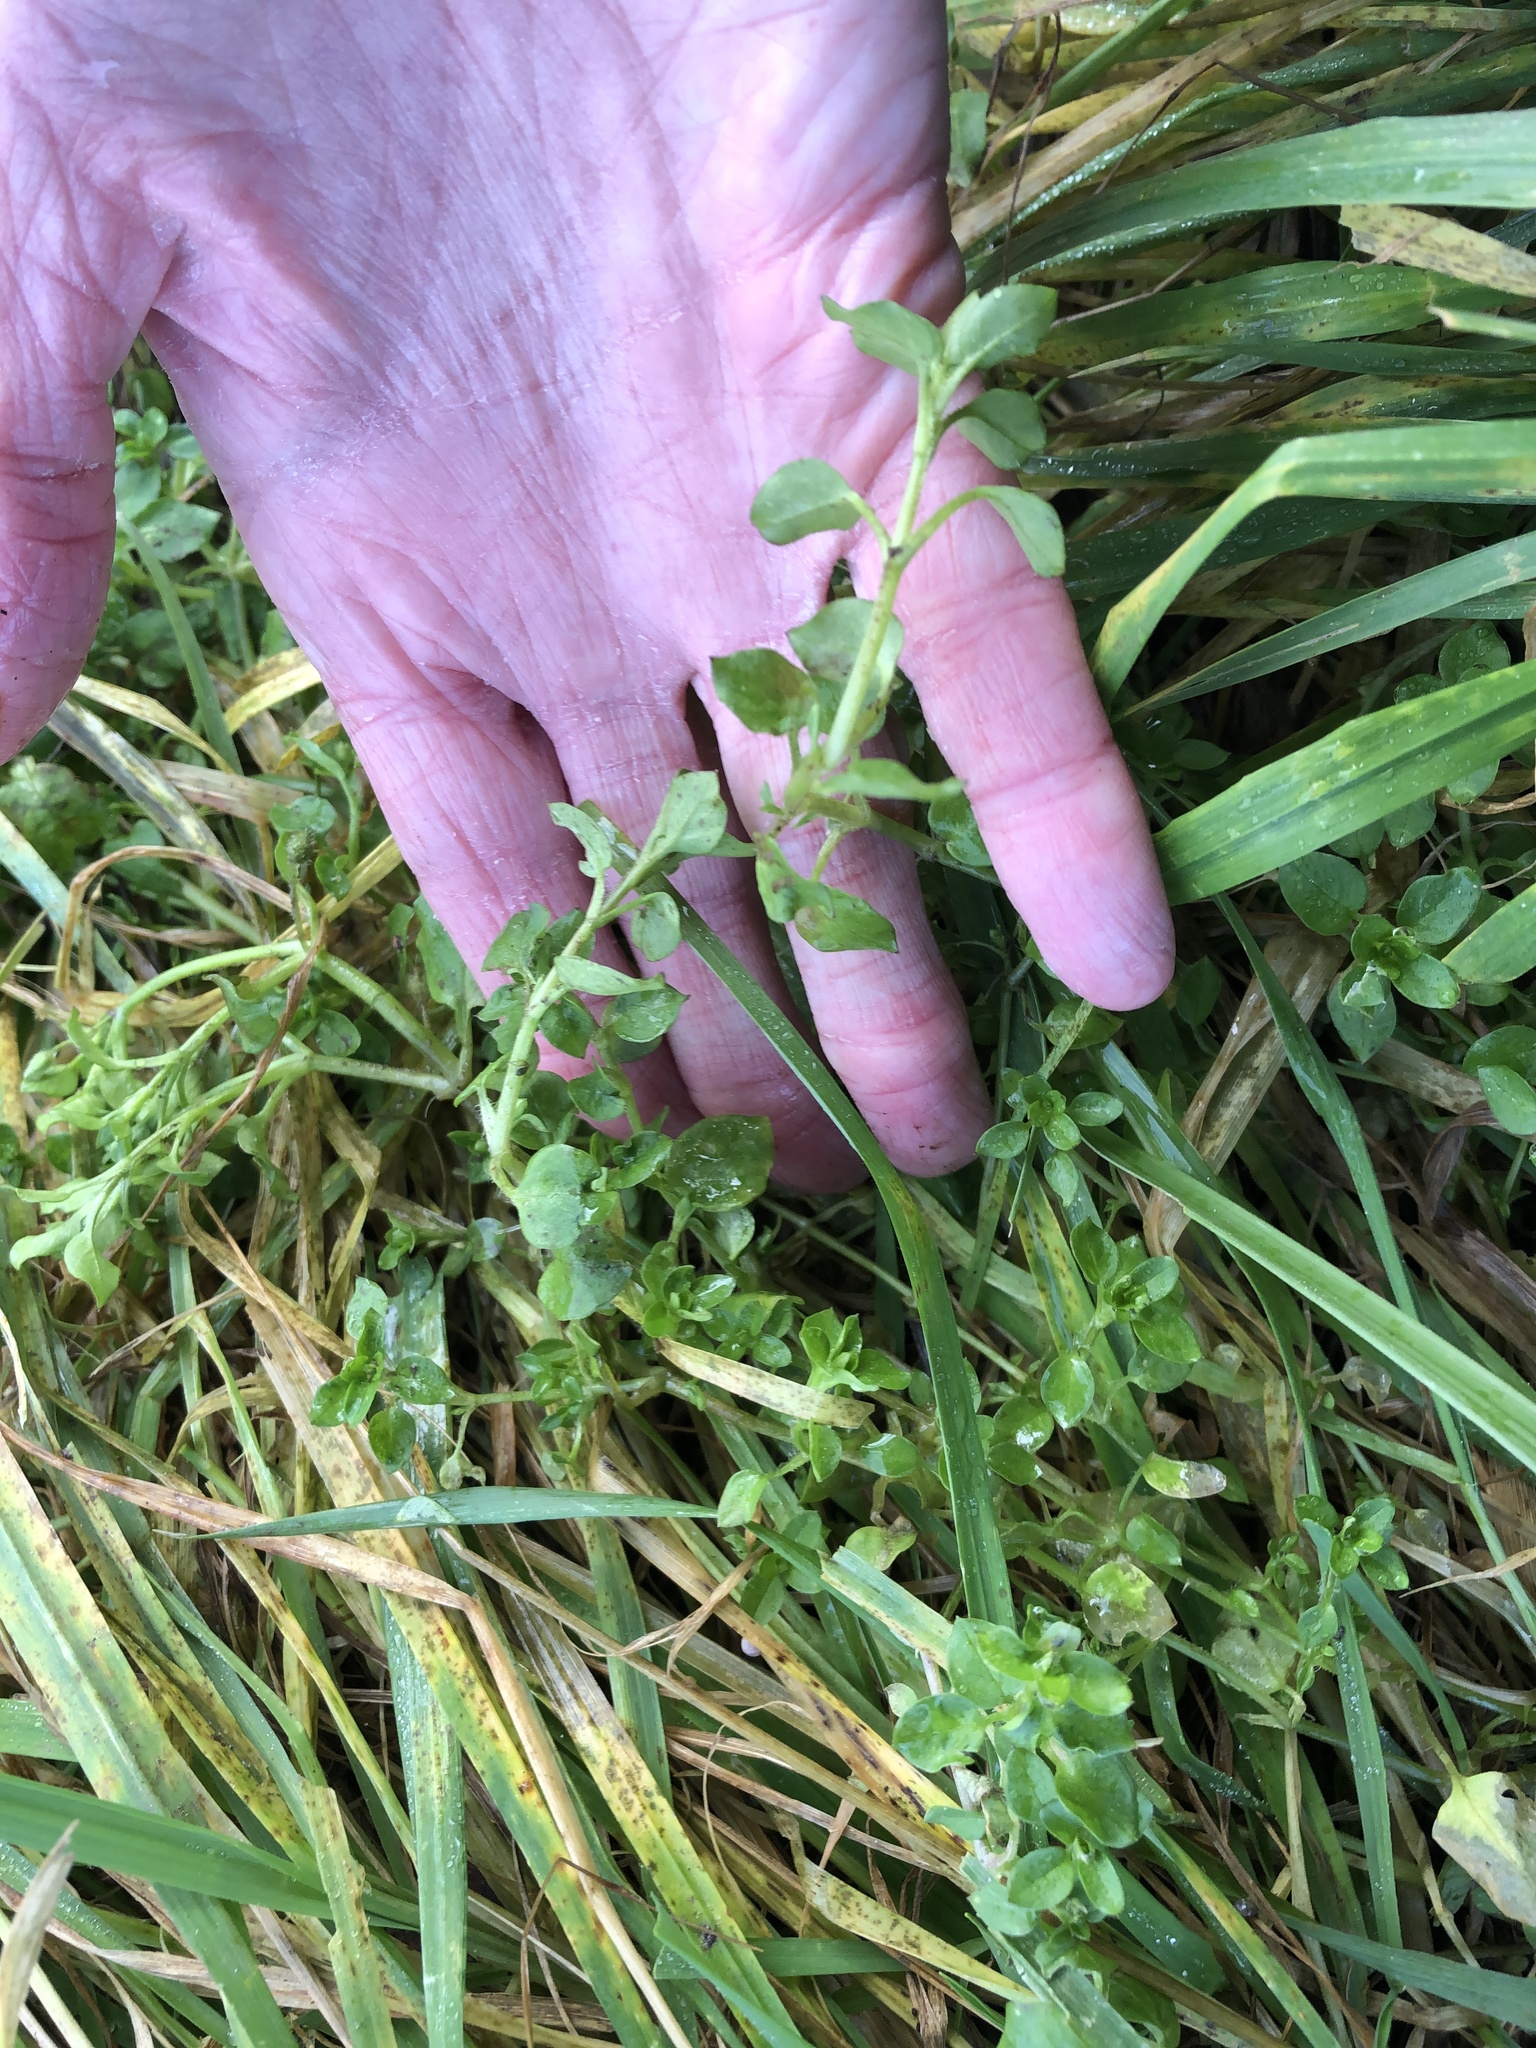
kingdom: Plantae
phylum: Tracheophyta
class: Magnoliopsida
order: Caryophyllales
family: Amaranthaceae
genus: Beta
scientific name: Beta vulgaris
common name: Beet
